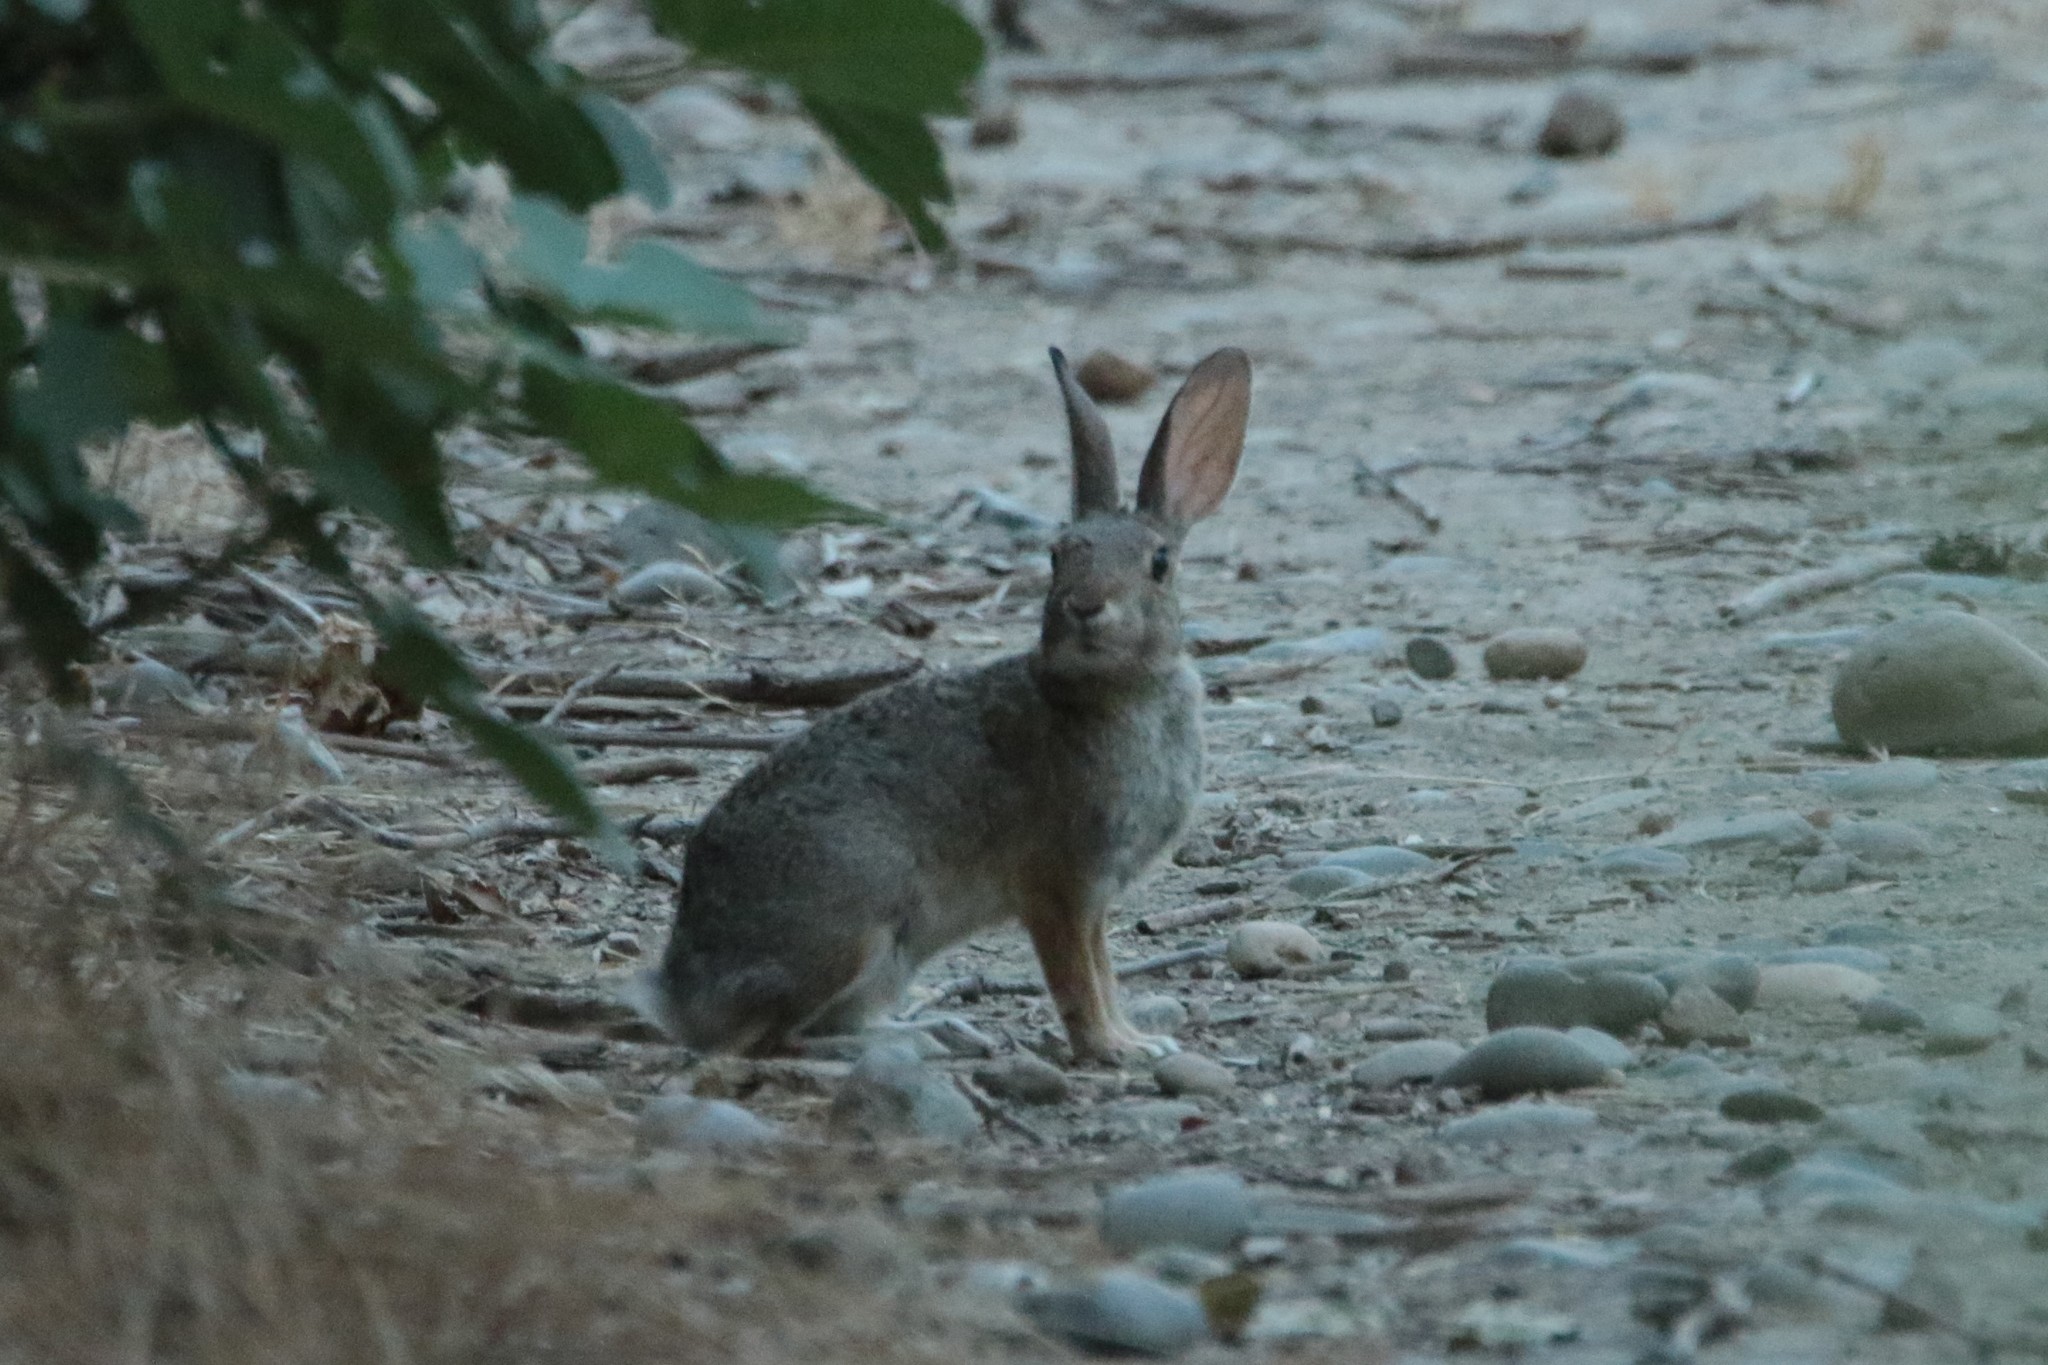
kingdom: Animalia
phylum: Chordata
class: Mammalia
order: Lagomorpha
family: Leporidae
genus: Sylvilagus
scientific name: Sylvilagus audubonii
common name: Desert cottontail
